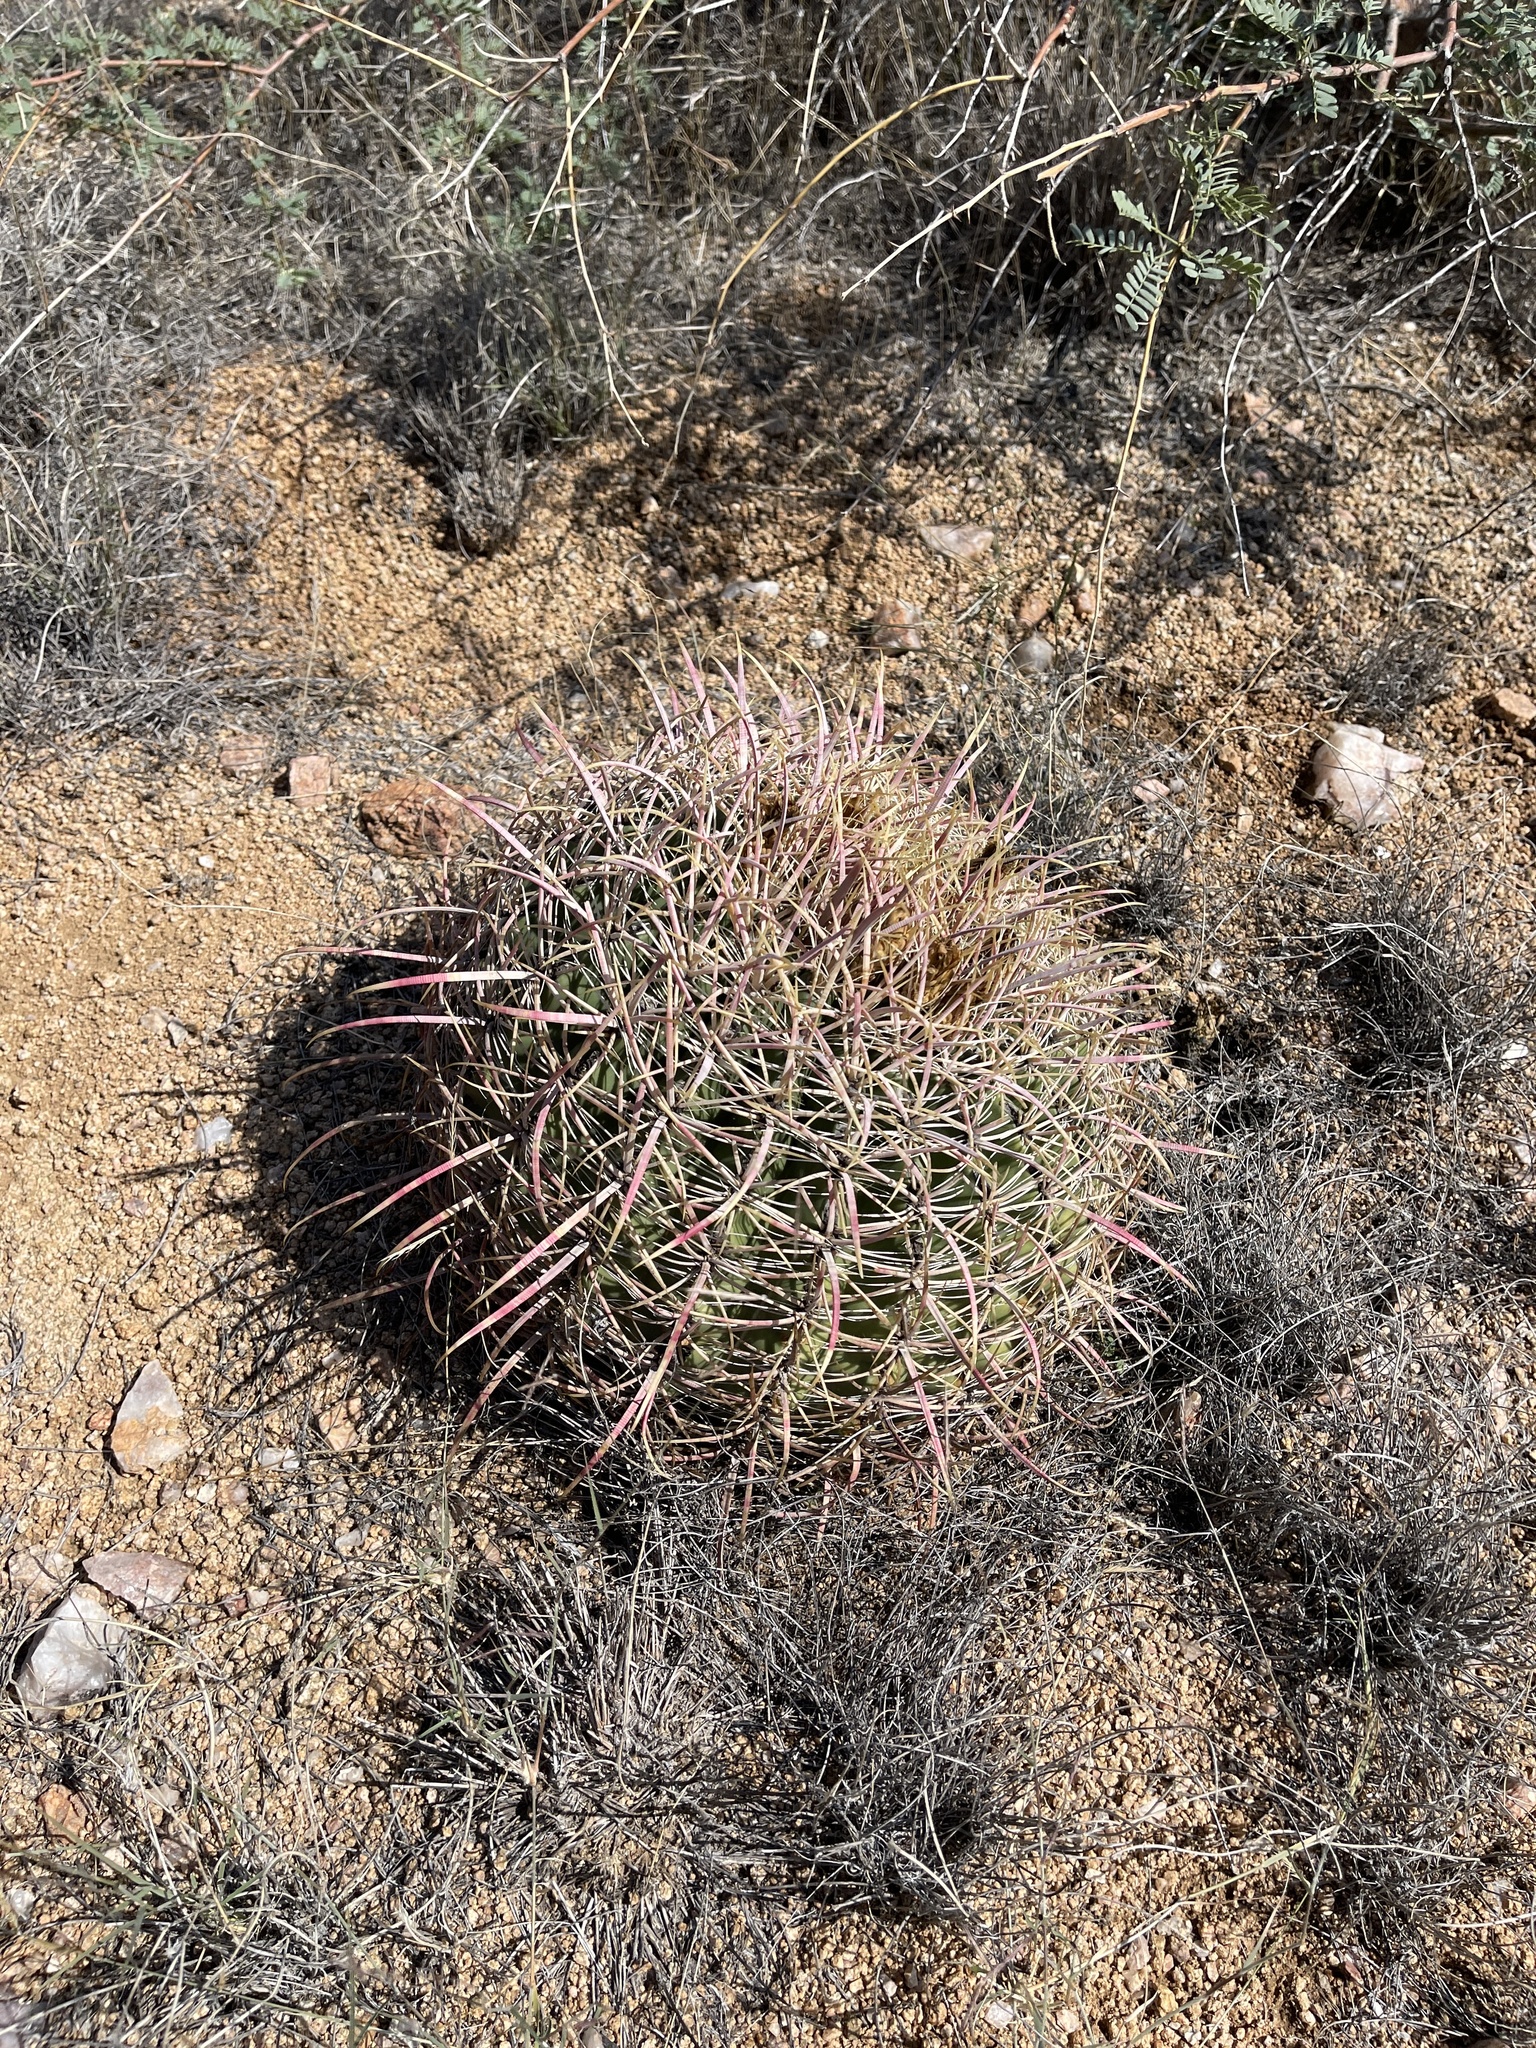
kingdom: Plantae
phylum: Tracheophyta
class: Magnoliopsida
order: Caryophyllales
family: Cactaceae
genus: Ferocactus
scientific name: Ferocactus cylindraceus
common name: California barrel cactus
